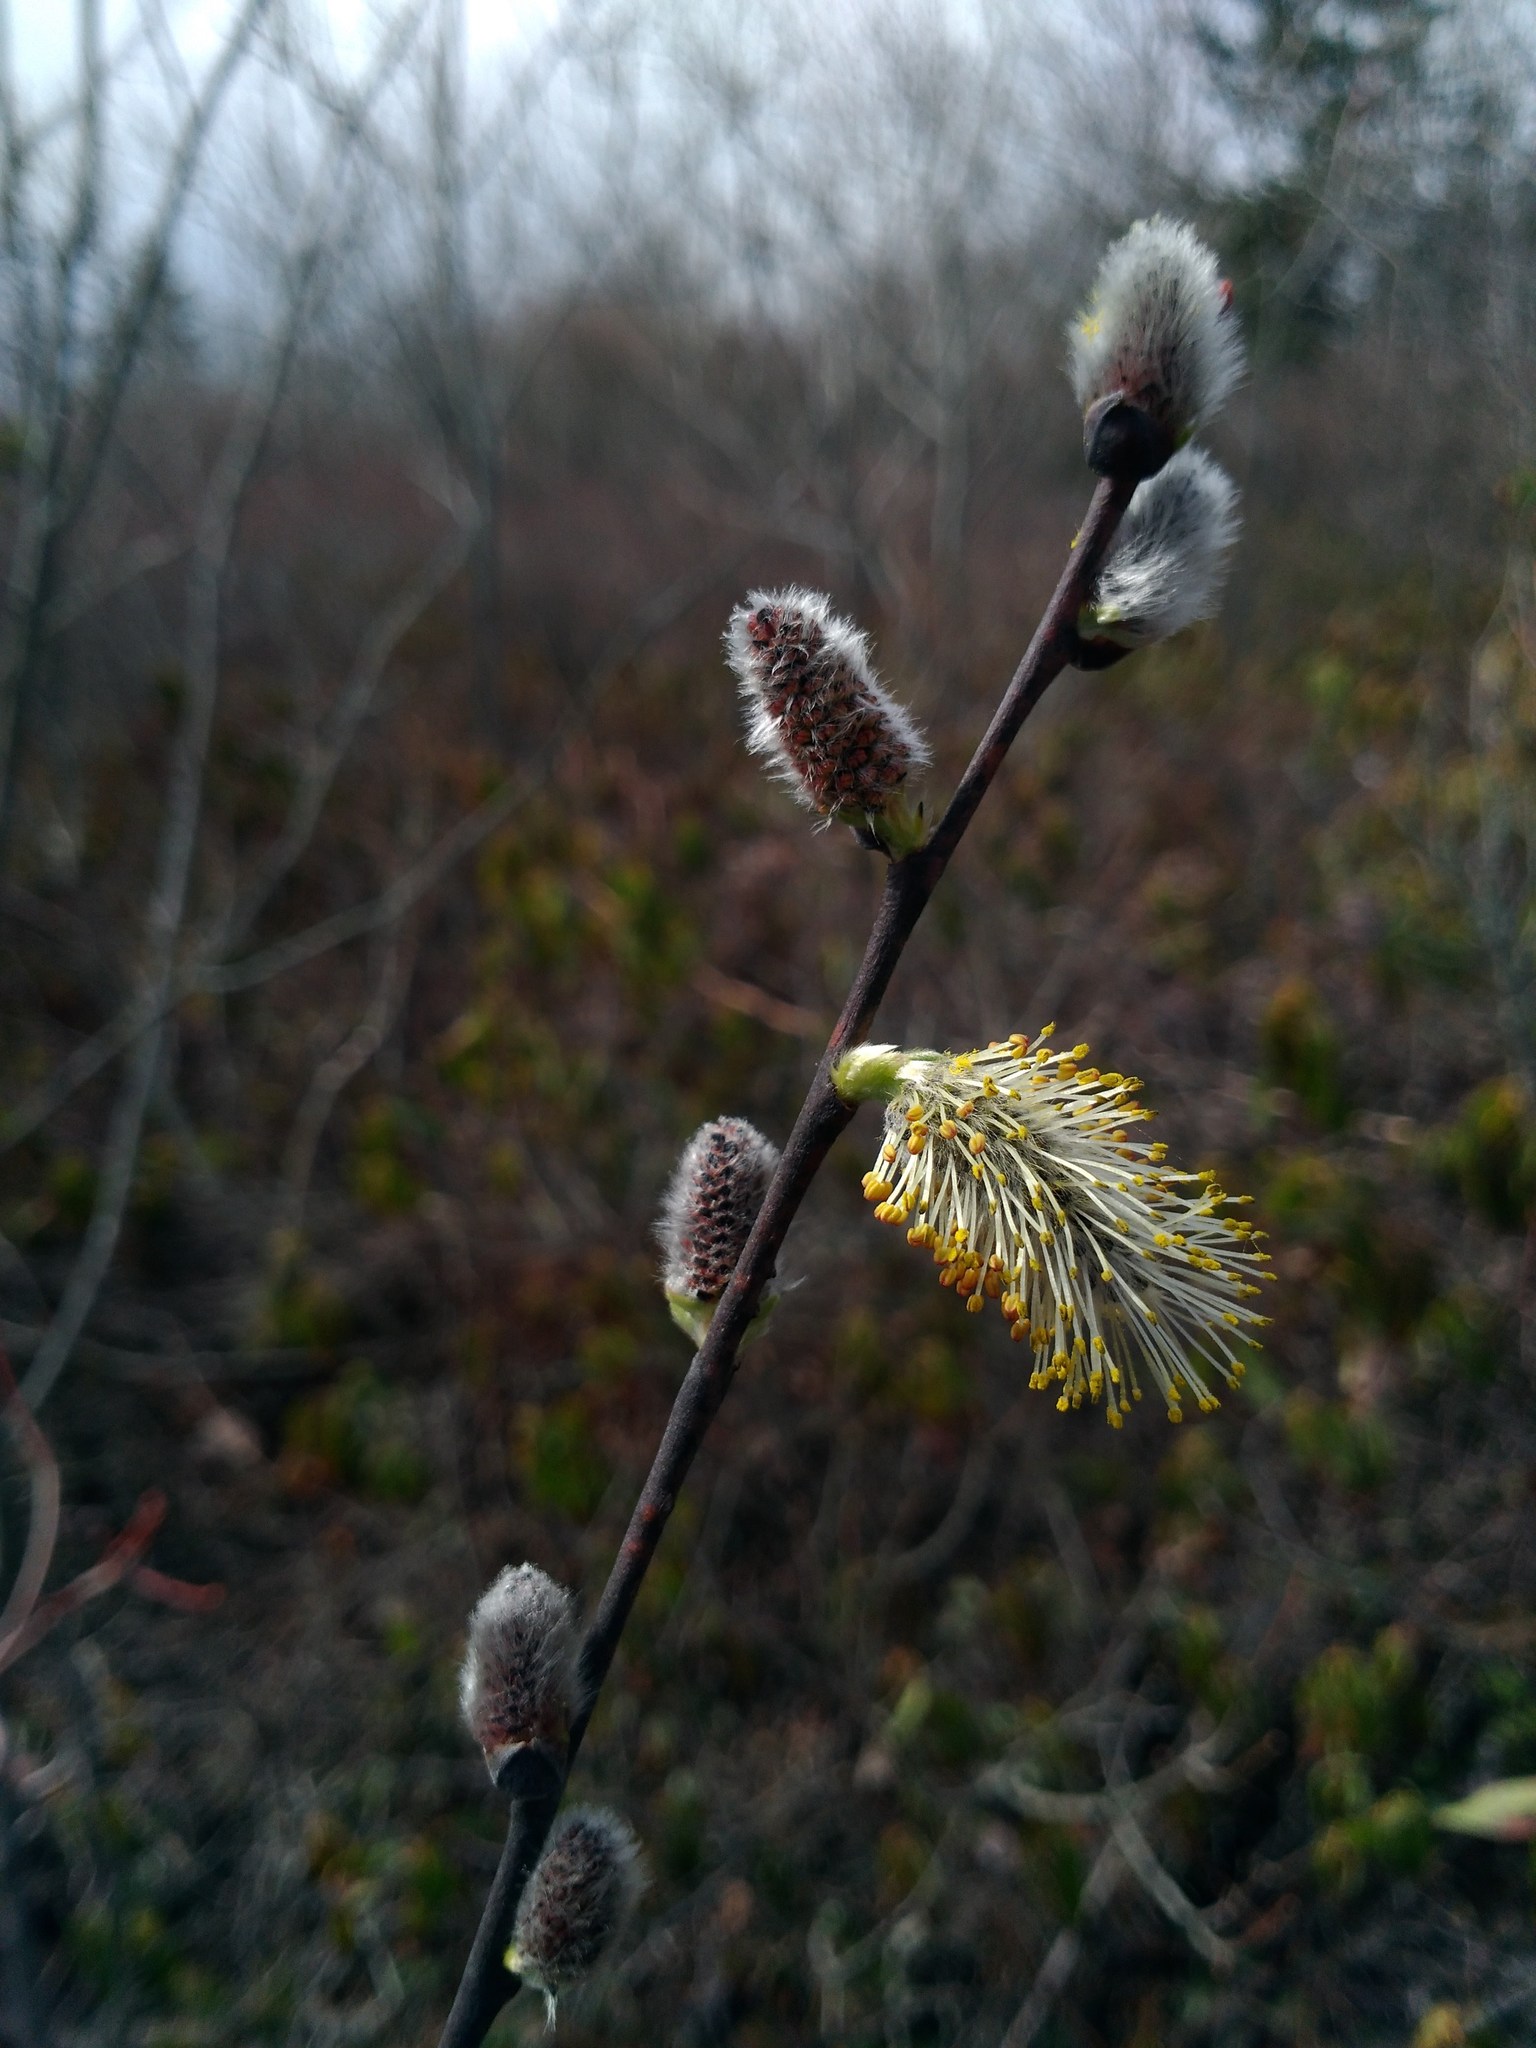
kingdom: Plantae
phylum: Tracheophyta
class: Magnoliopsida
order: Malpighiales
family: Salicaceae
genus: Salix
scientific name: Salix discolor
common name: Glaucous willow
